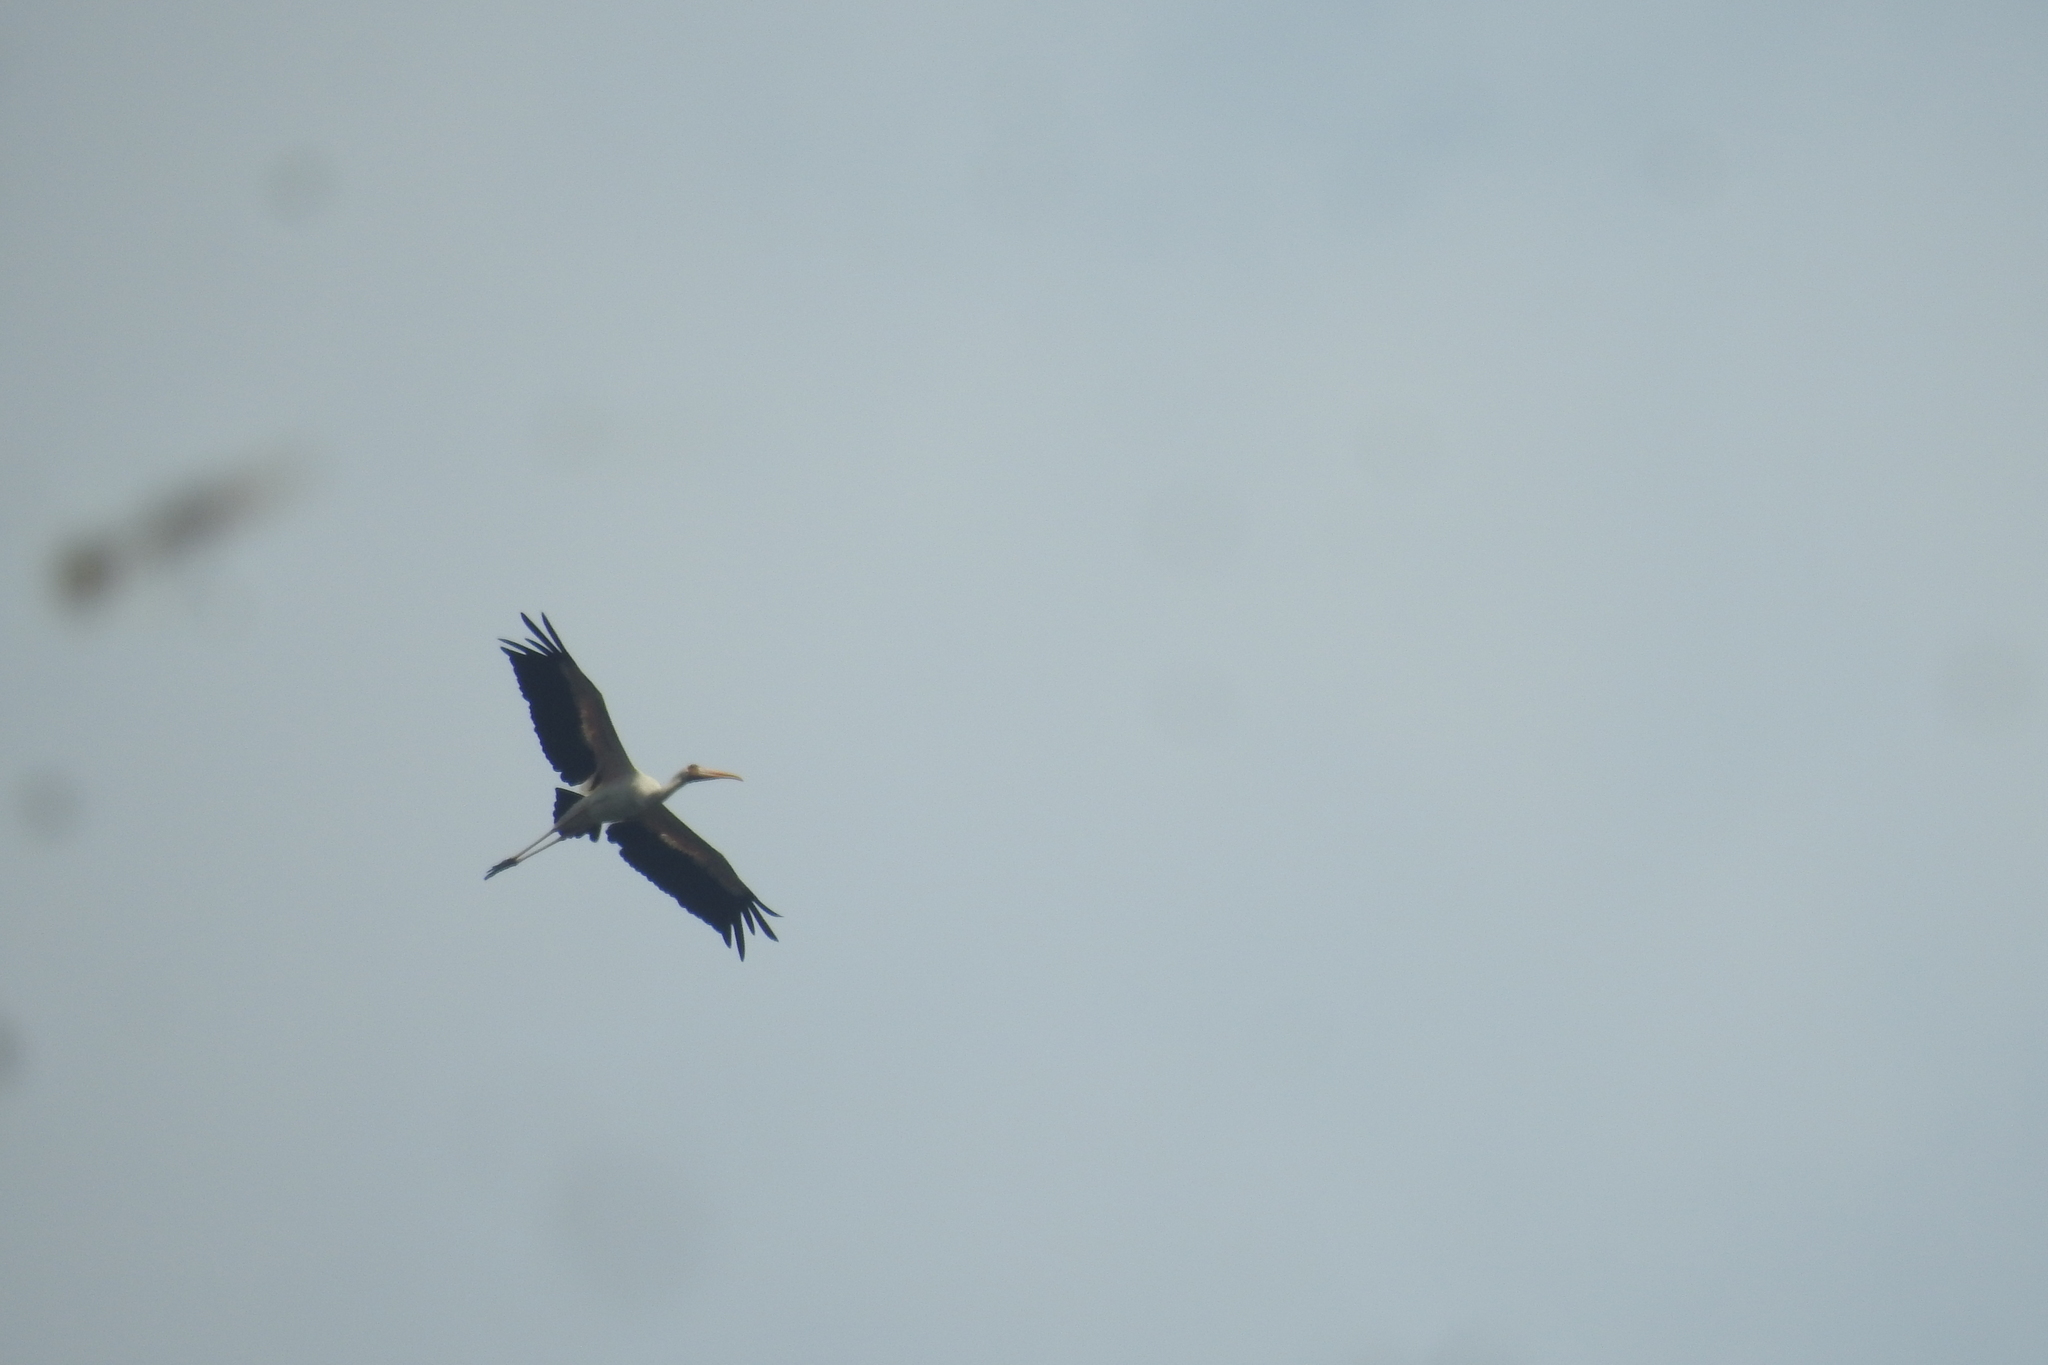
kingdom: Animalia
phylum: Chordata
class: Aves
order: Ciconiiformes
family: Ciconiidae
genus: Mycteria
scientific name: Mycteria cinerea
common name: Milky stork
